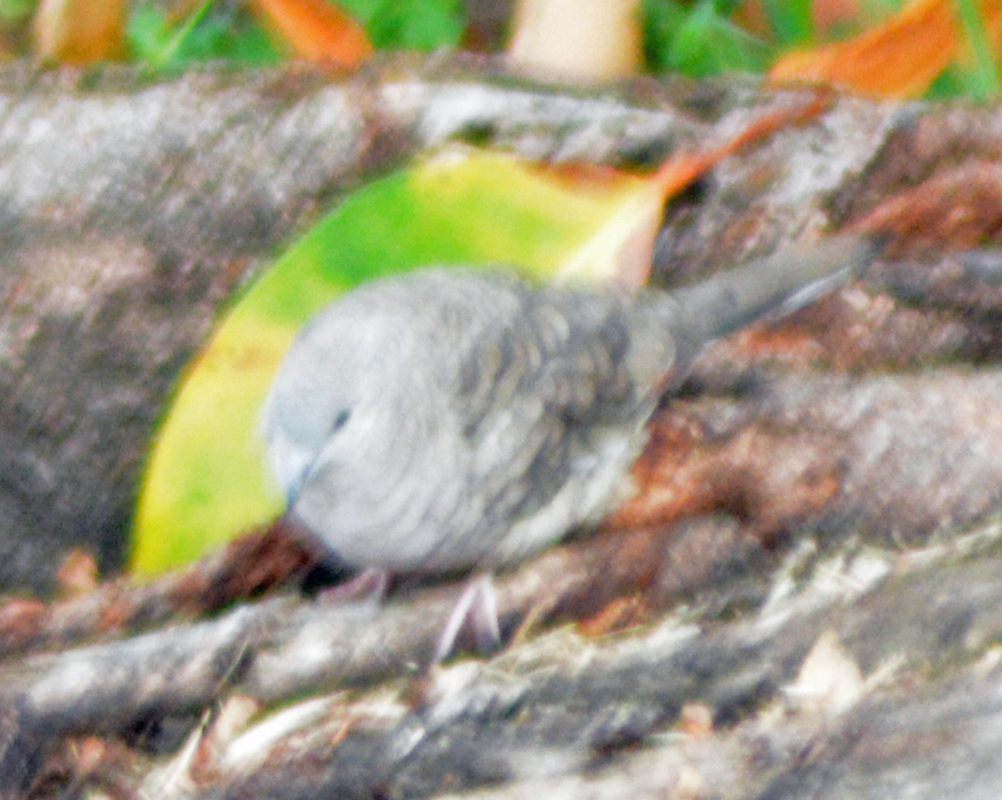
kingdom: Animalia
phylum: Chordata
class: Aves
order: Columbiformes
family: Columbidae
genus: Columbina
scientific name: Columbina inca
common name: Inca dove
